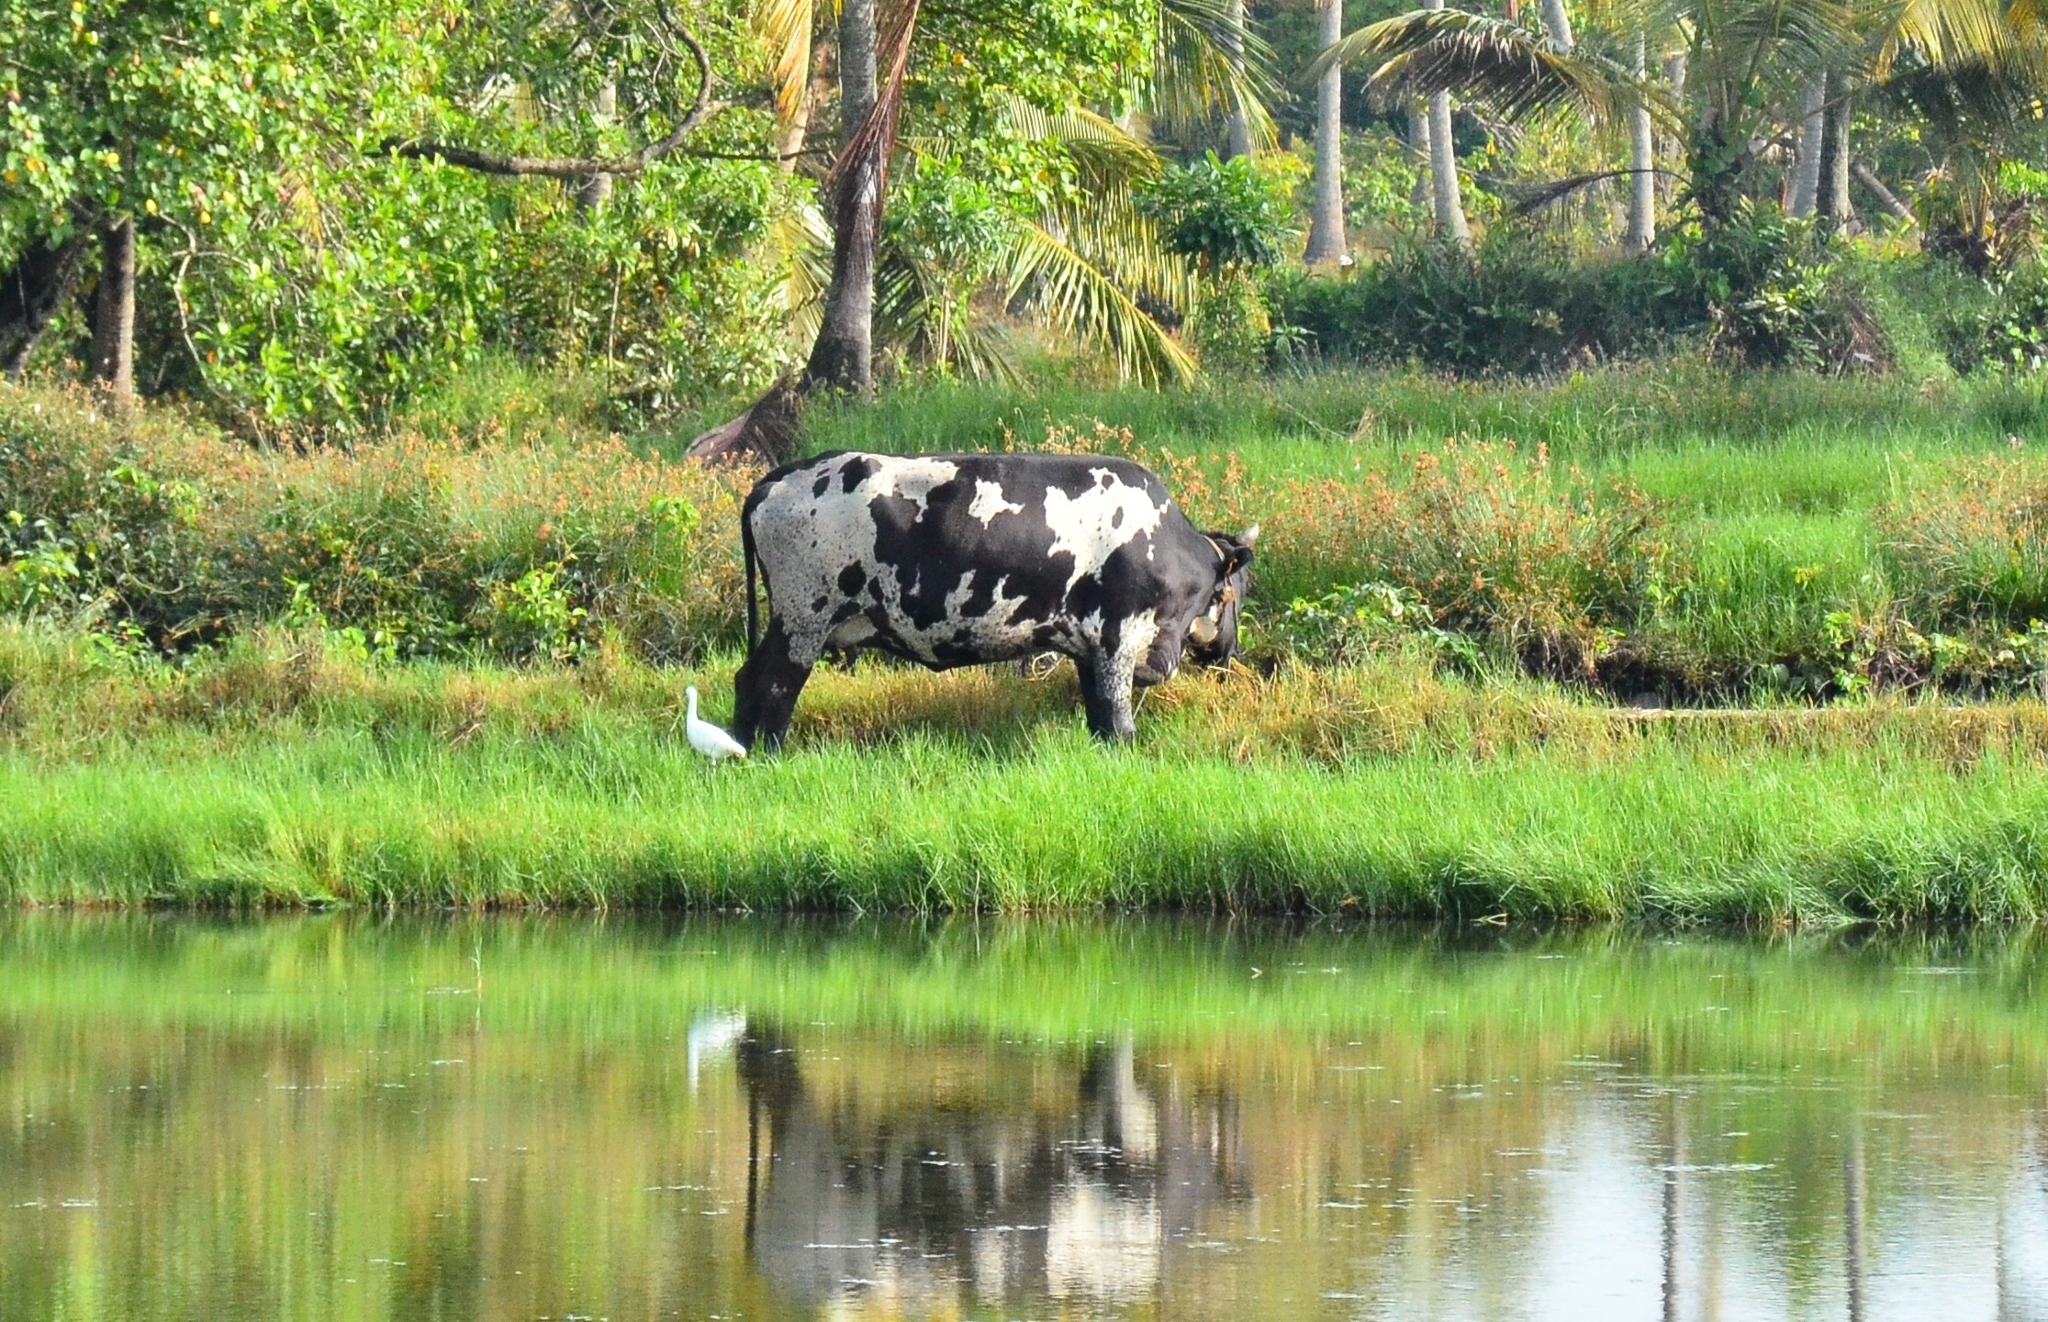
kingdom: Animalia
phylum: Chordata
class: Aves
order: Pelecaniformes
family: Ardeidae
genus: Bubulcus
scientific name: Bubulcus coromandus
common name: Eastern cattle egret
